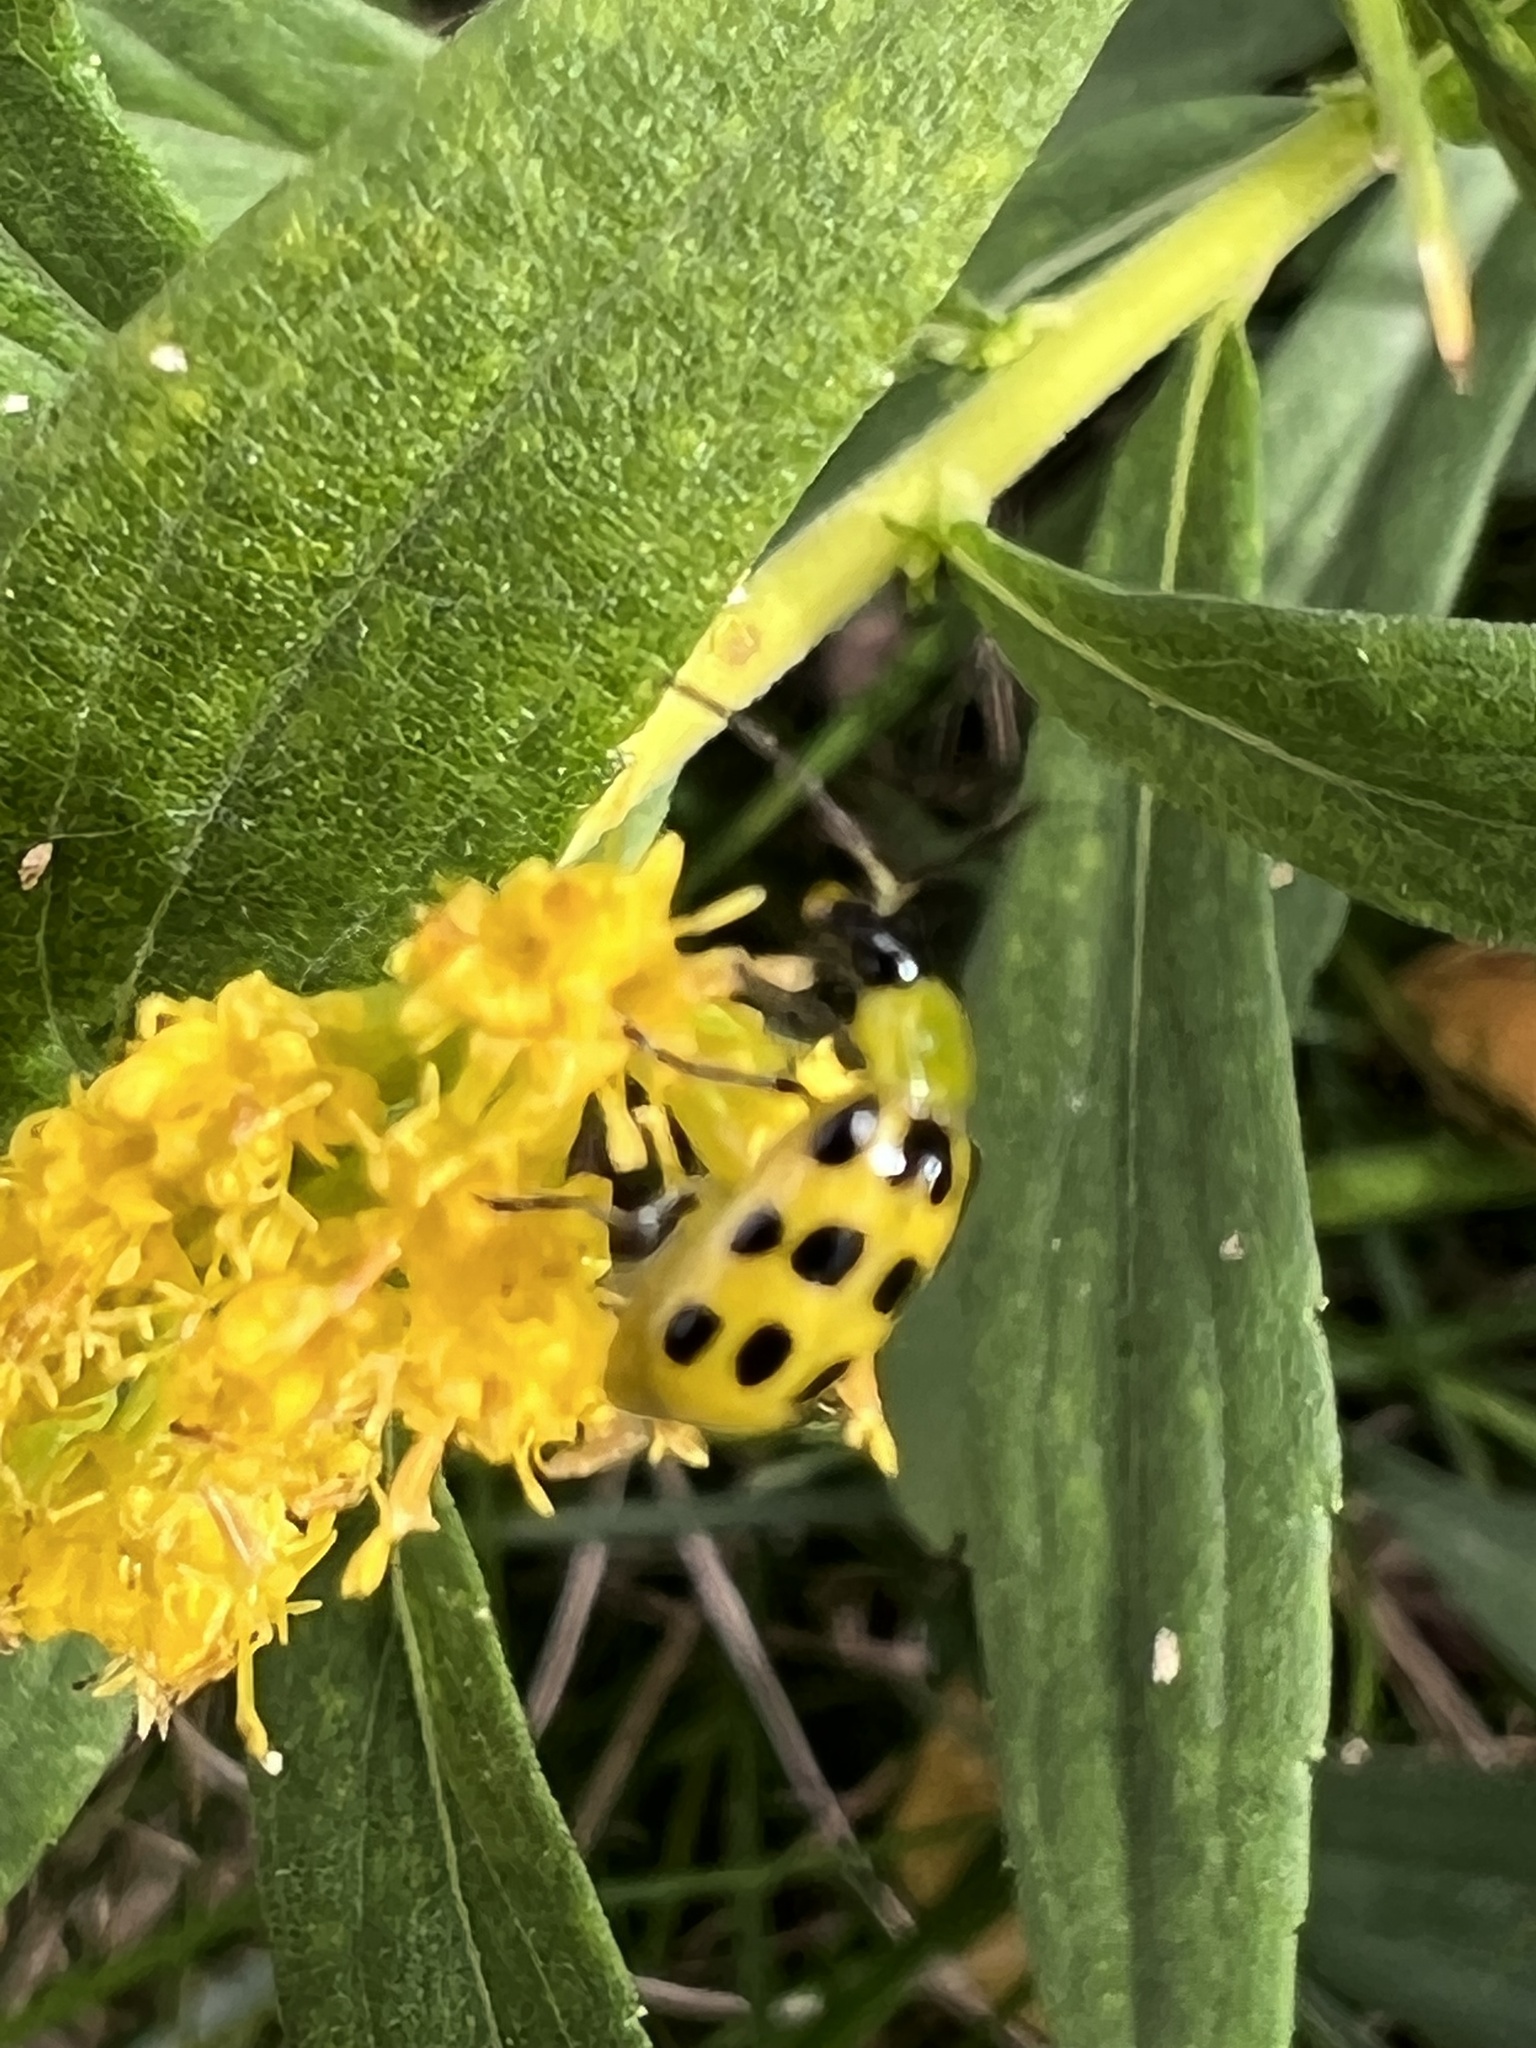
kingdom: Animalia
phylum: Arthropoda
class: Insecta
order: Coleoptera
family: Chrysomelidae
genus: Diabrotica
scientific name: Diabrotica undecimpunctata
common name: Spotted cucumber beetle
